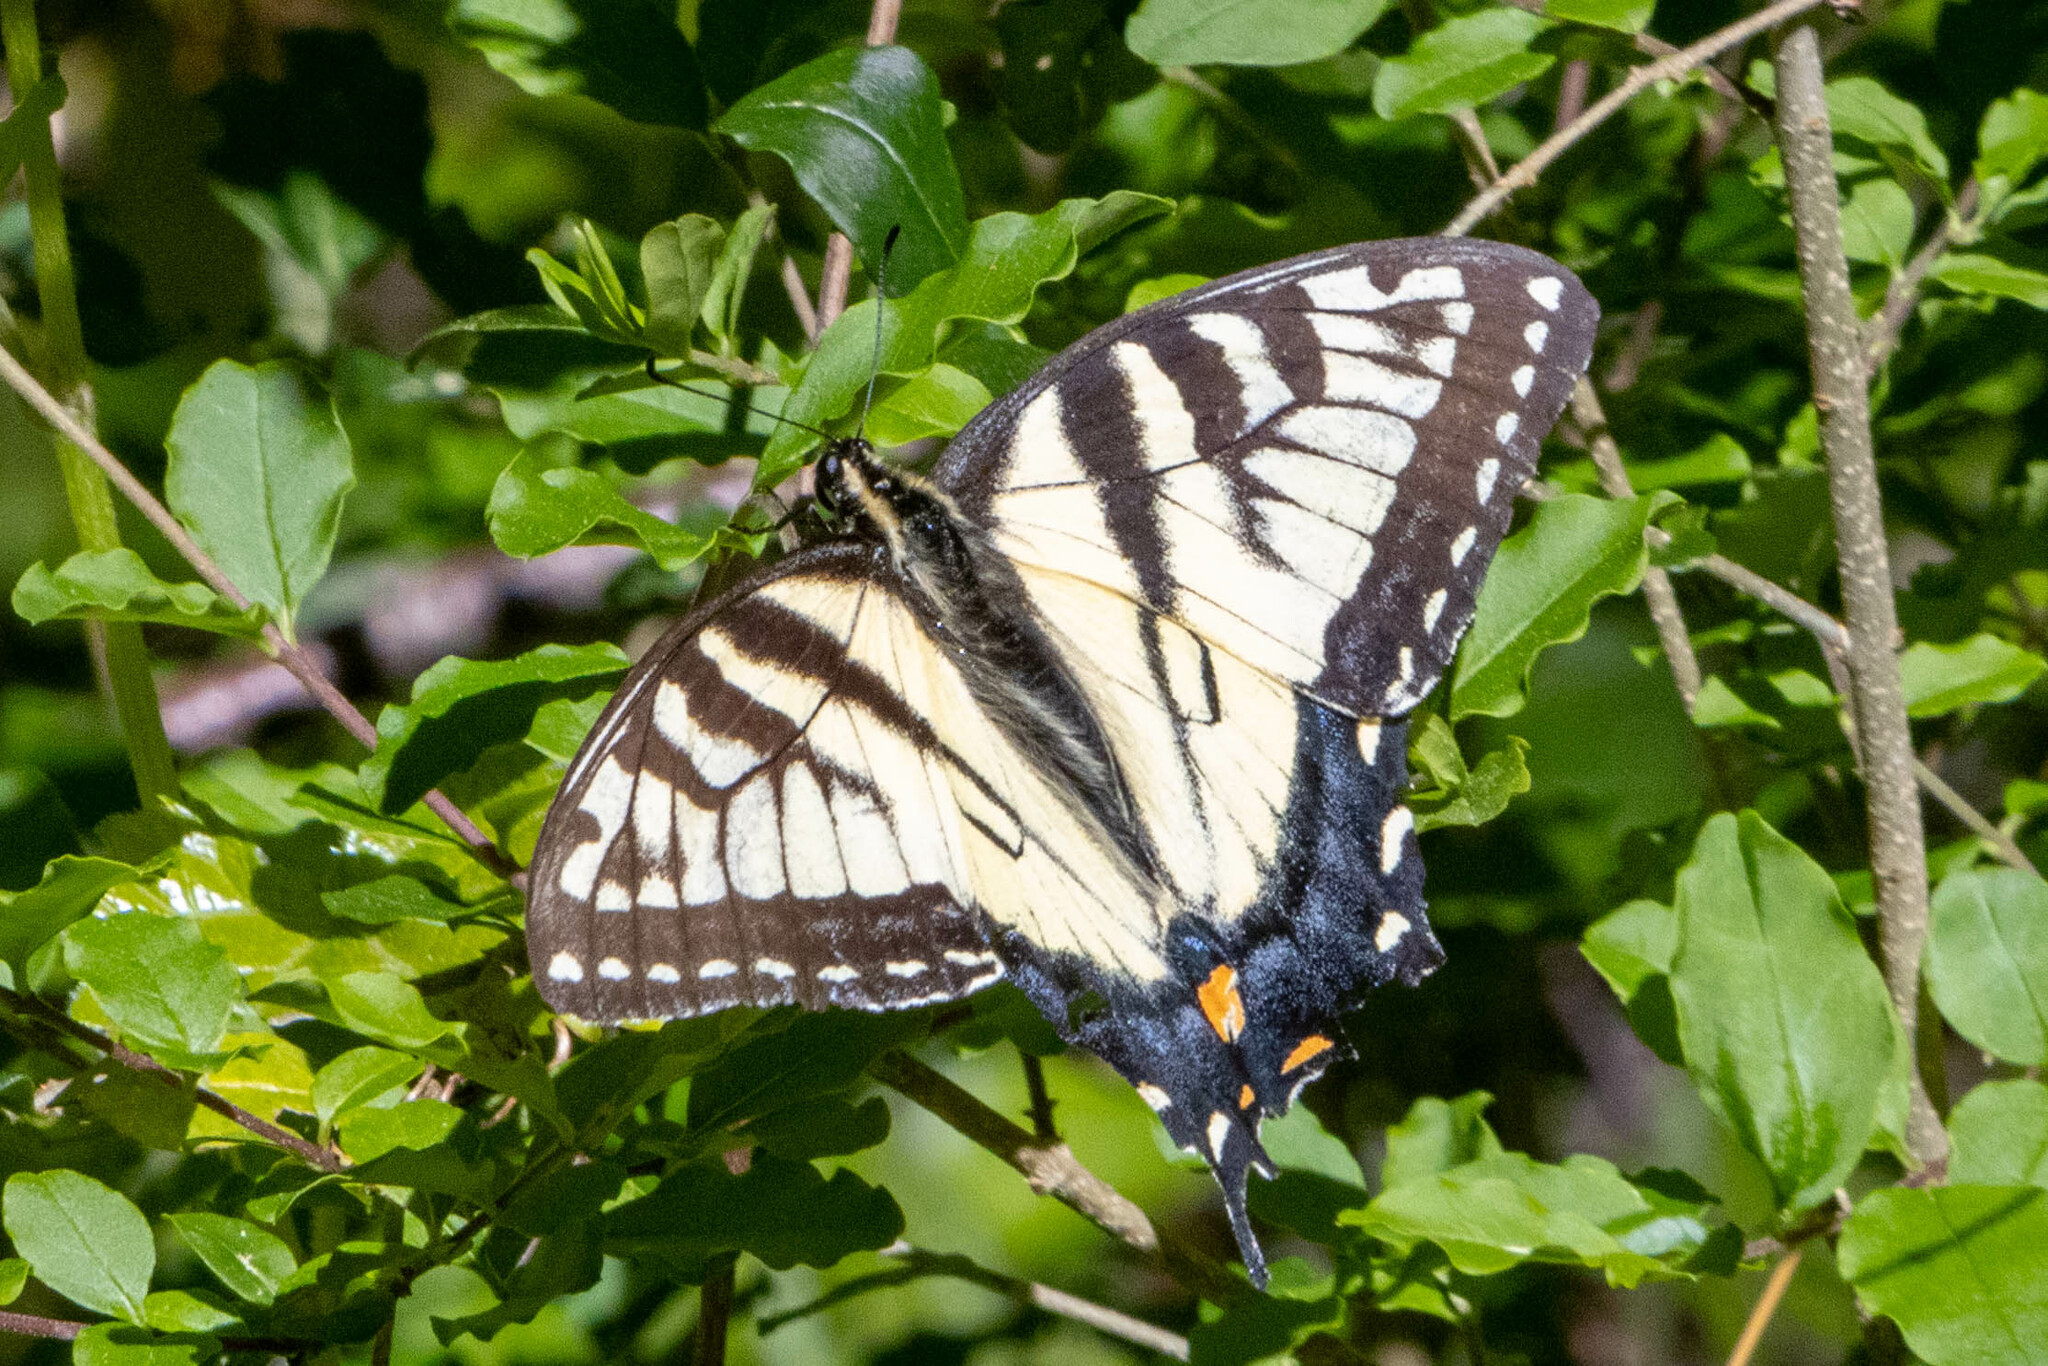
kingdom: Animalia
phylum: Arthropoda
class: Insecta
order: Lepidoptera
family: Papilionidae
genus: Papilio
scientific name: Papilio glaucus
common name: Tiger swallowtail
